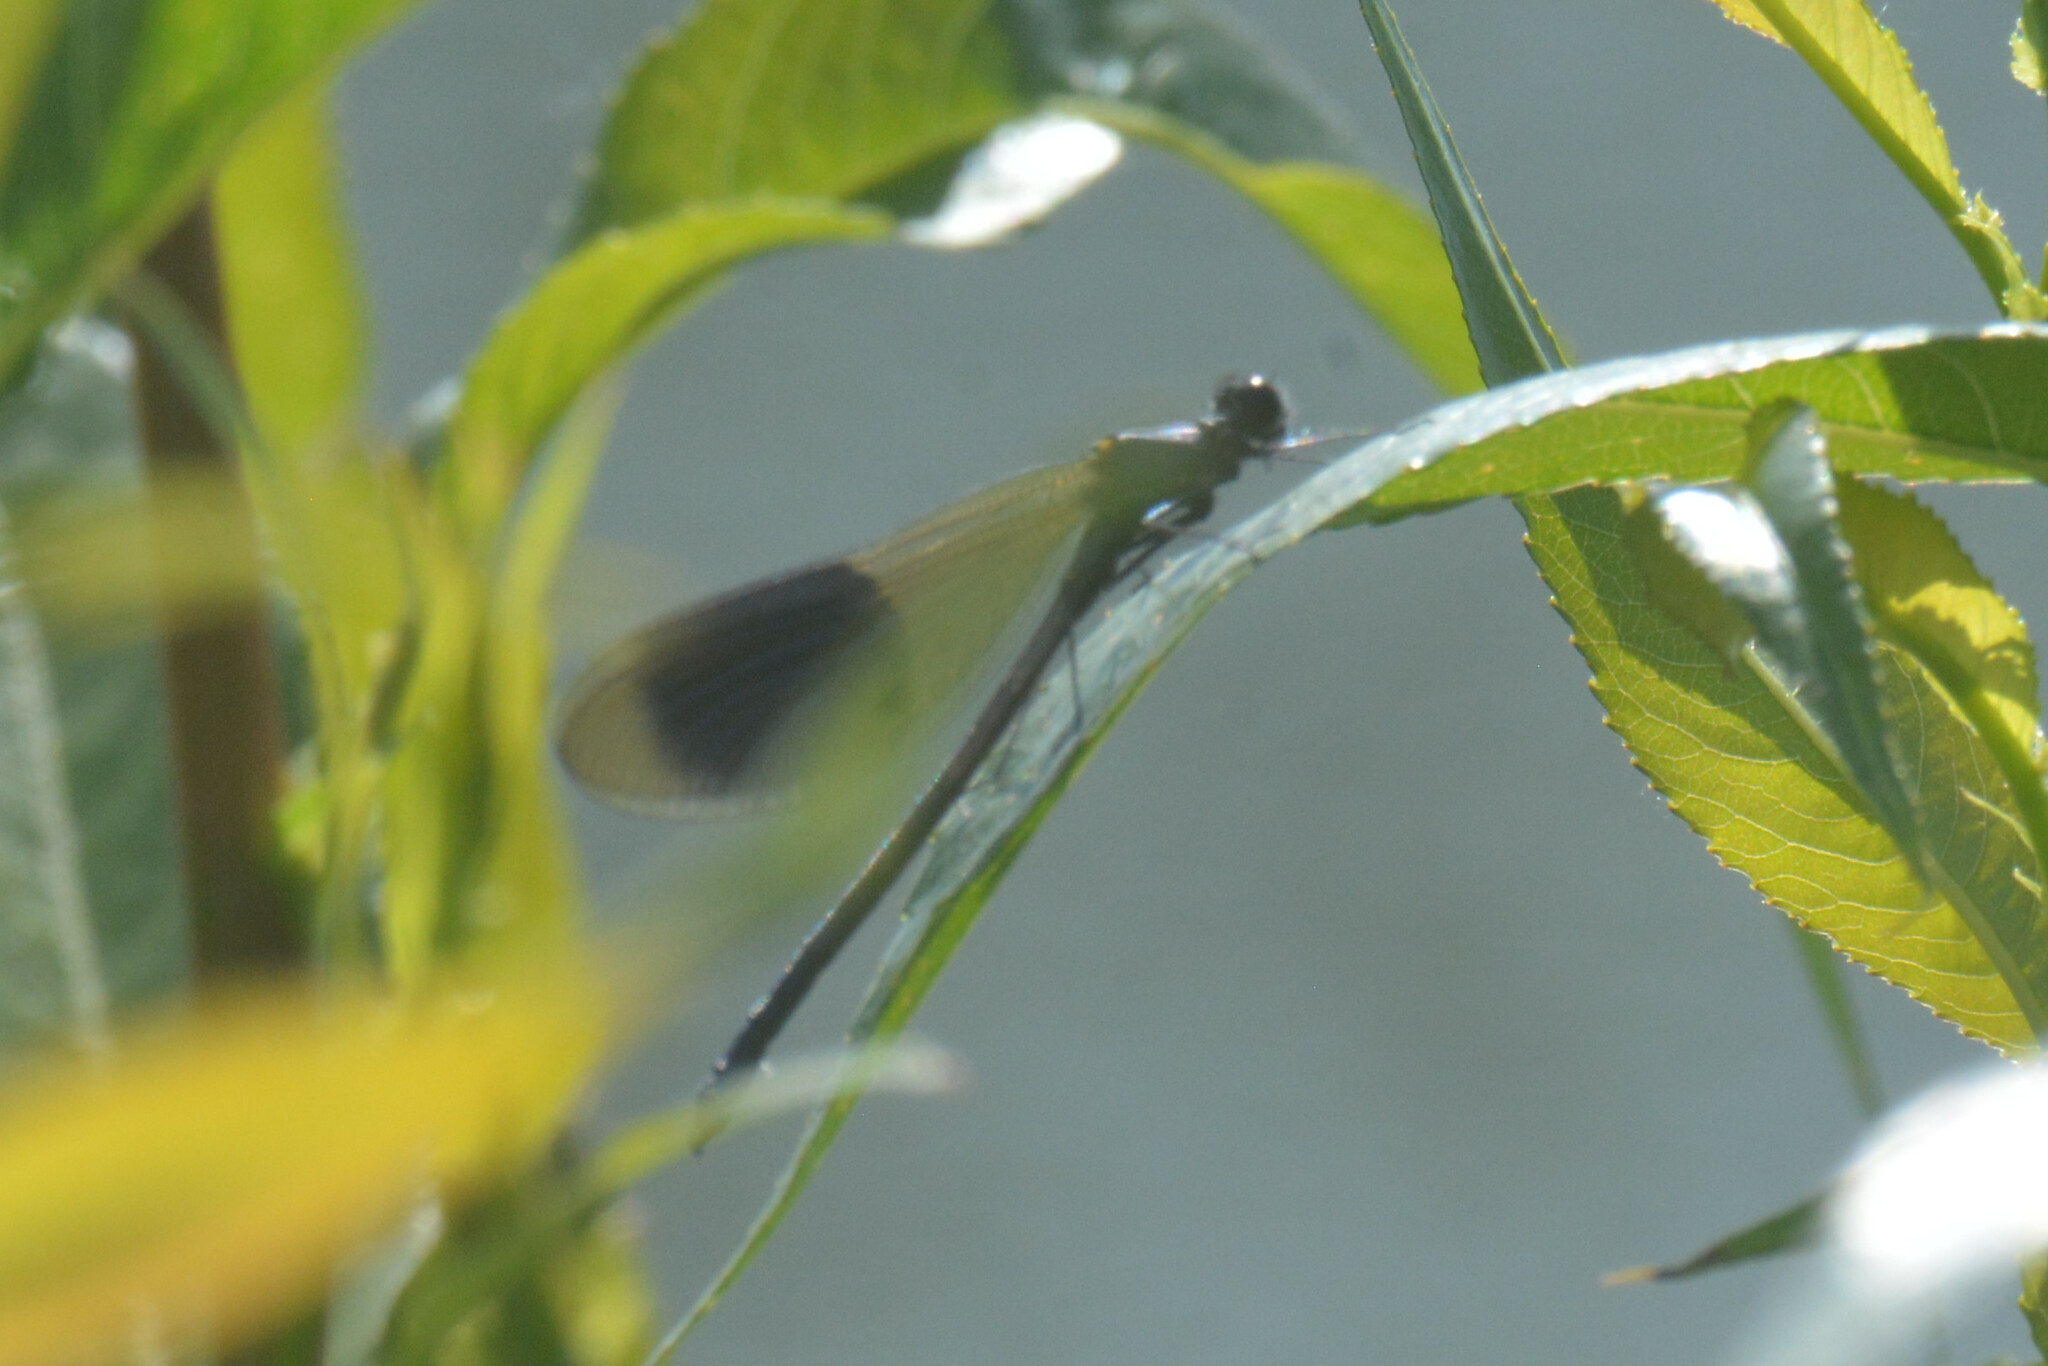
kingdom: Animalia
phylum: Arthropoda
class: Insecta
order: Odonata
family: Calopterygidae
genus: Calopteryx
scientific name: Calopteryx splendens
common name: Banded demoiselle
